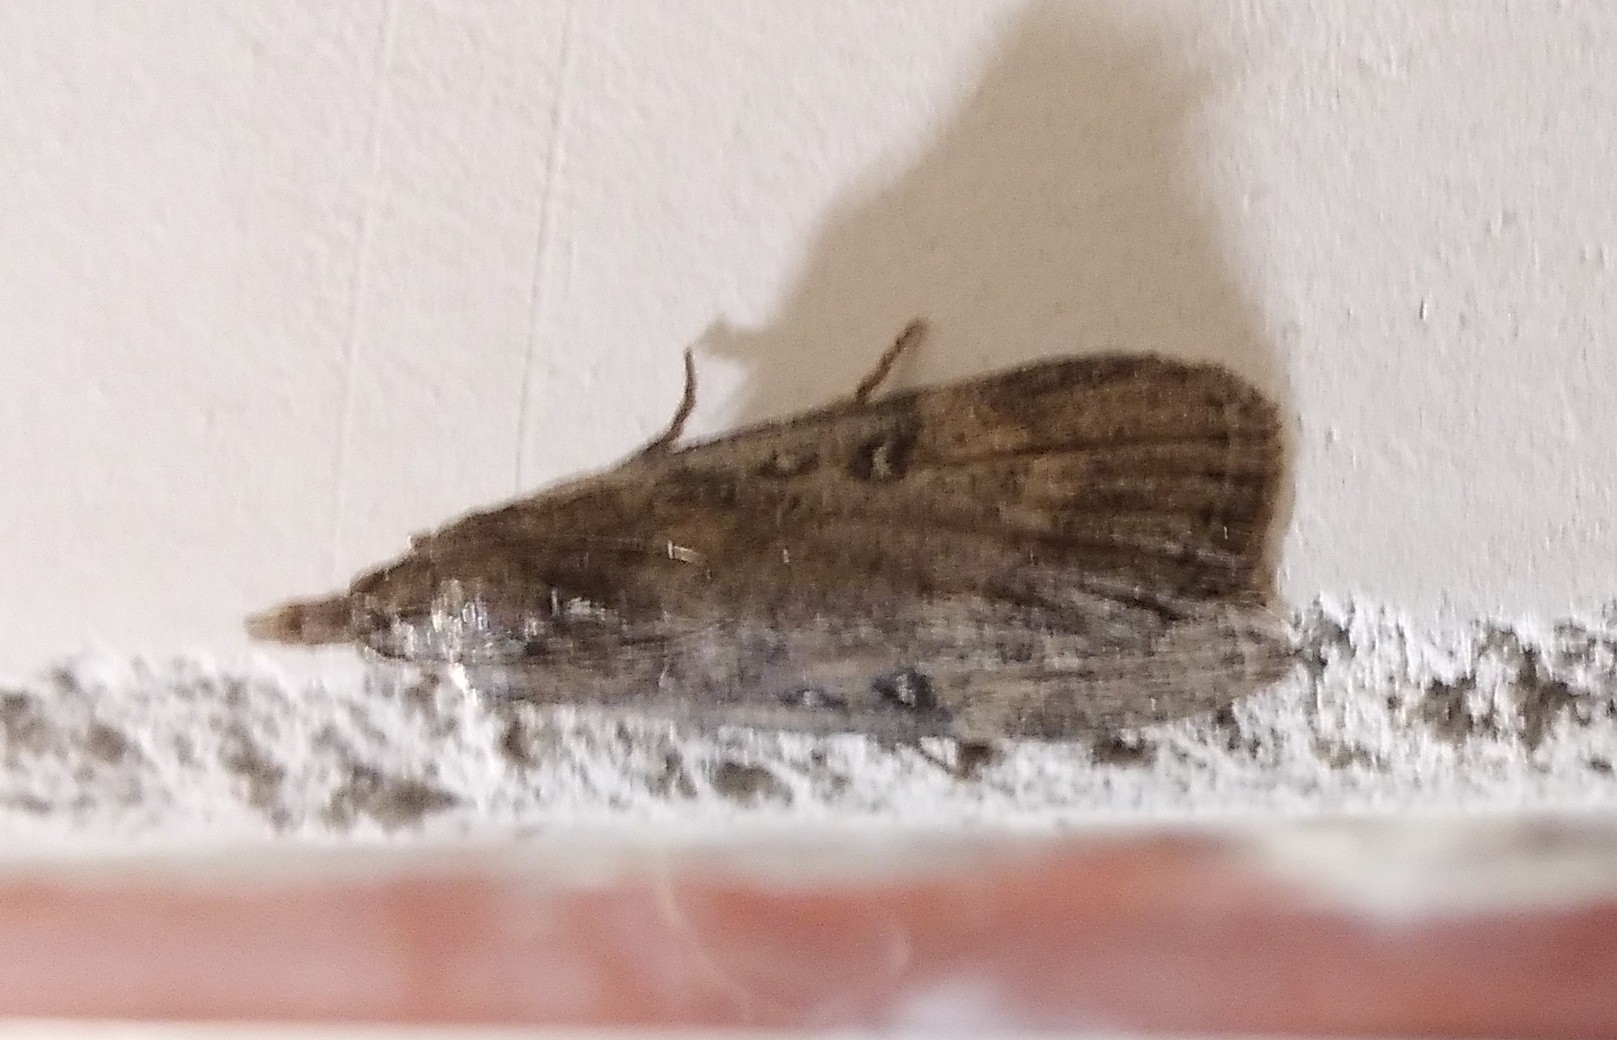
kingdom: Animalia
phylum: Arthropoda
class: Insecta
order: Lepidoptera
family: Pyralidae
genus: Lamoria
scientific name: Lamoria anella
